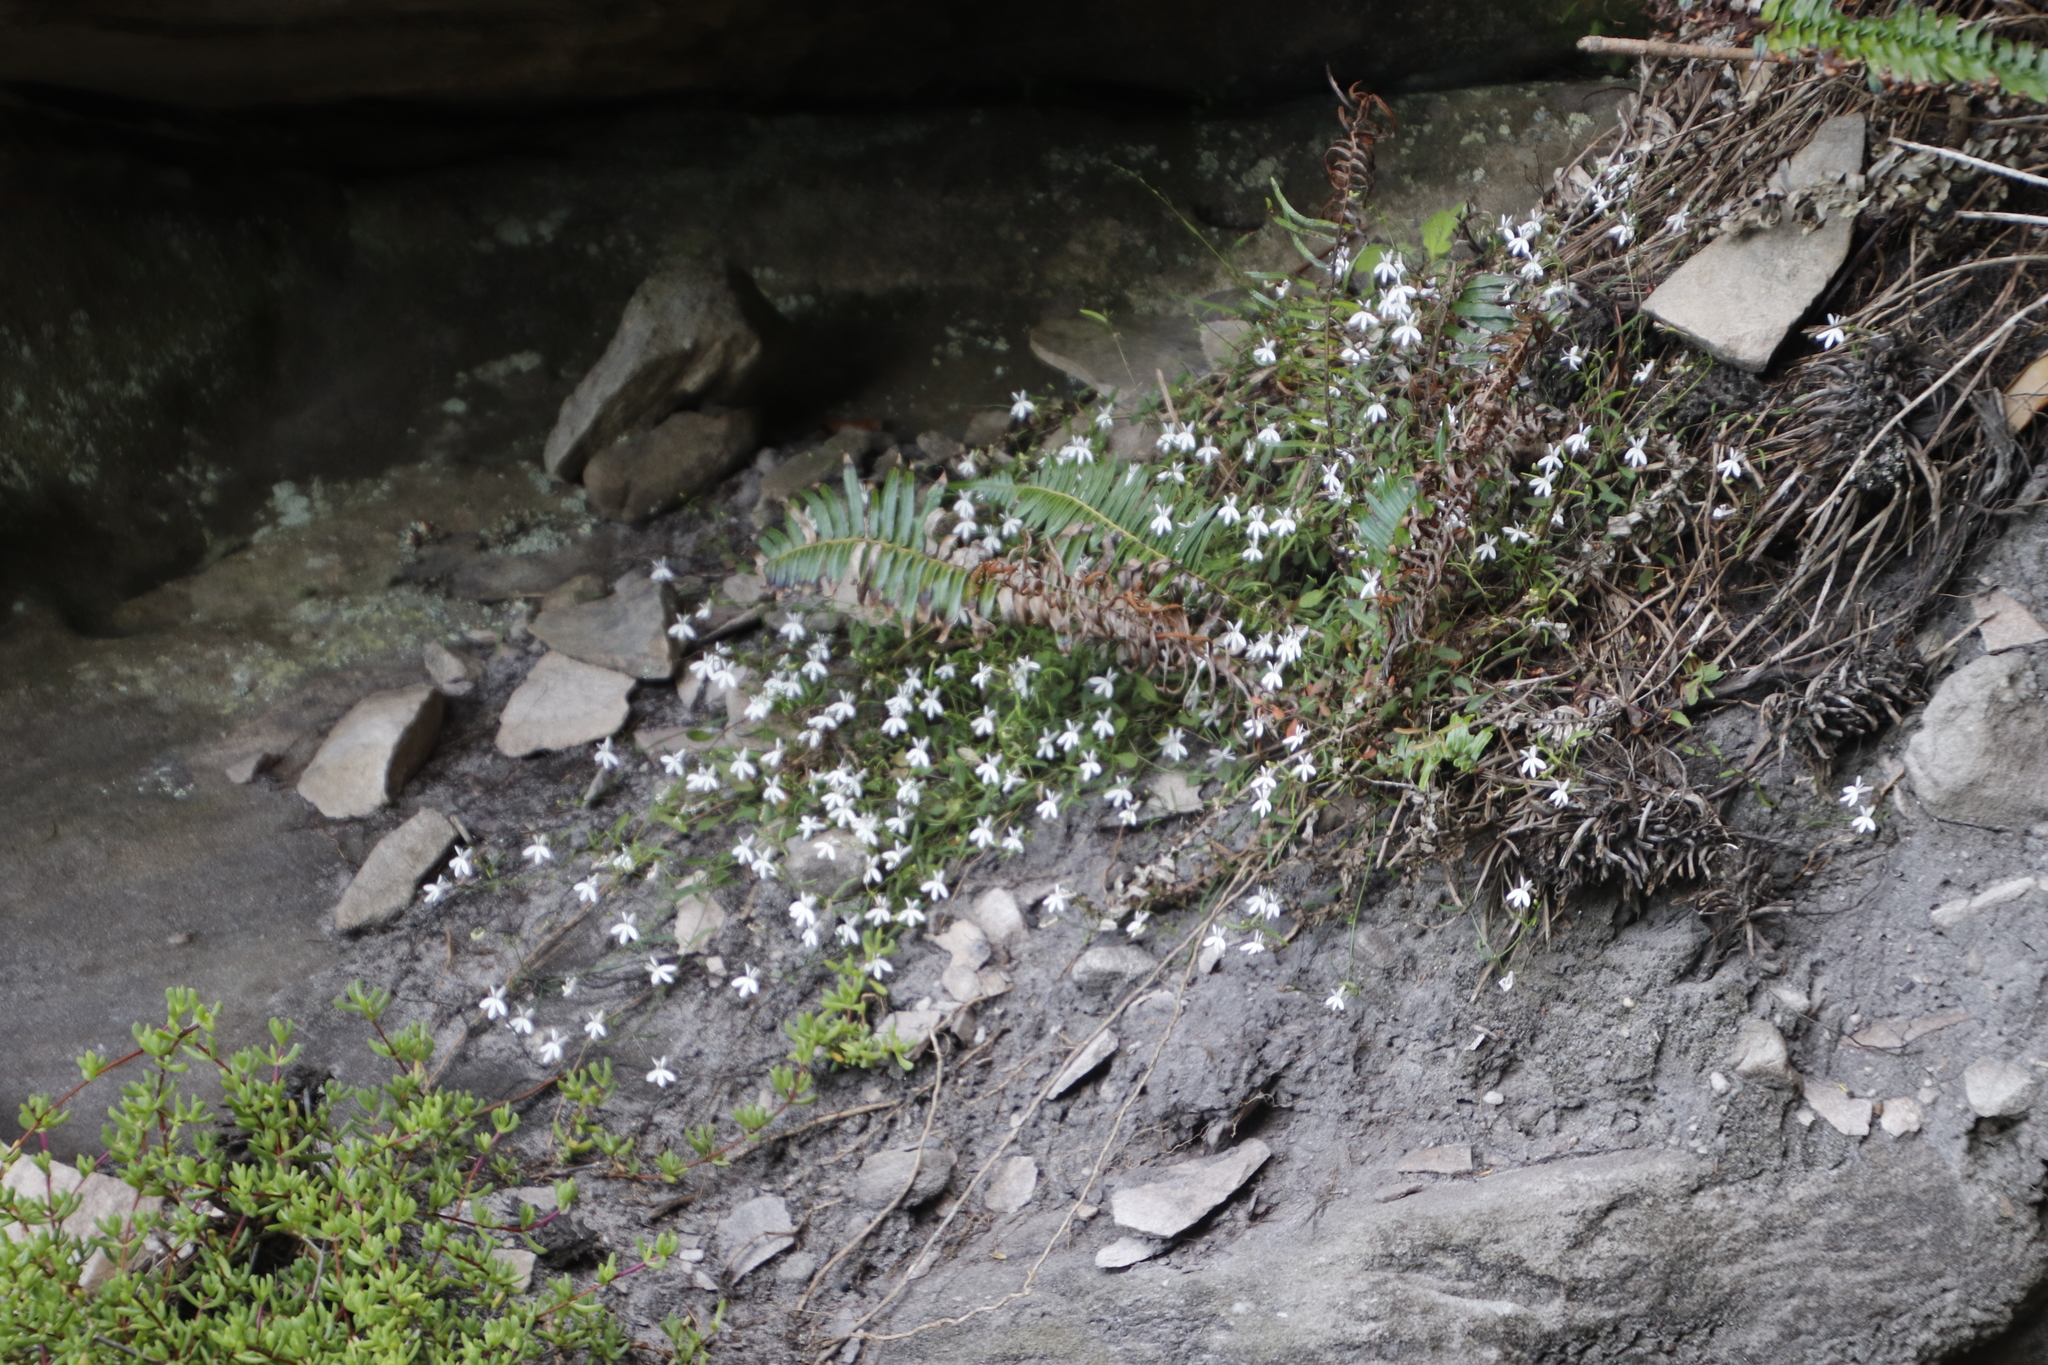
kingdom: Plantae
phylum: Tracheophyta
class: Magnoliopsida
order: Asterales
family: Campanulaceae
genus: Lobelia
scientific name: Lobelia pubescens
